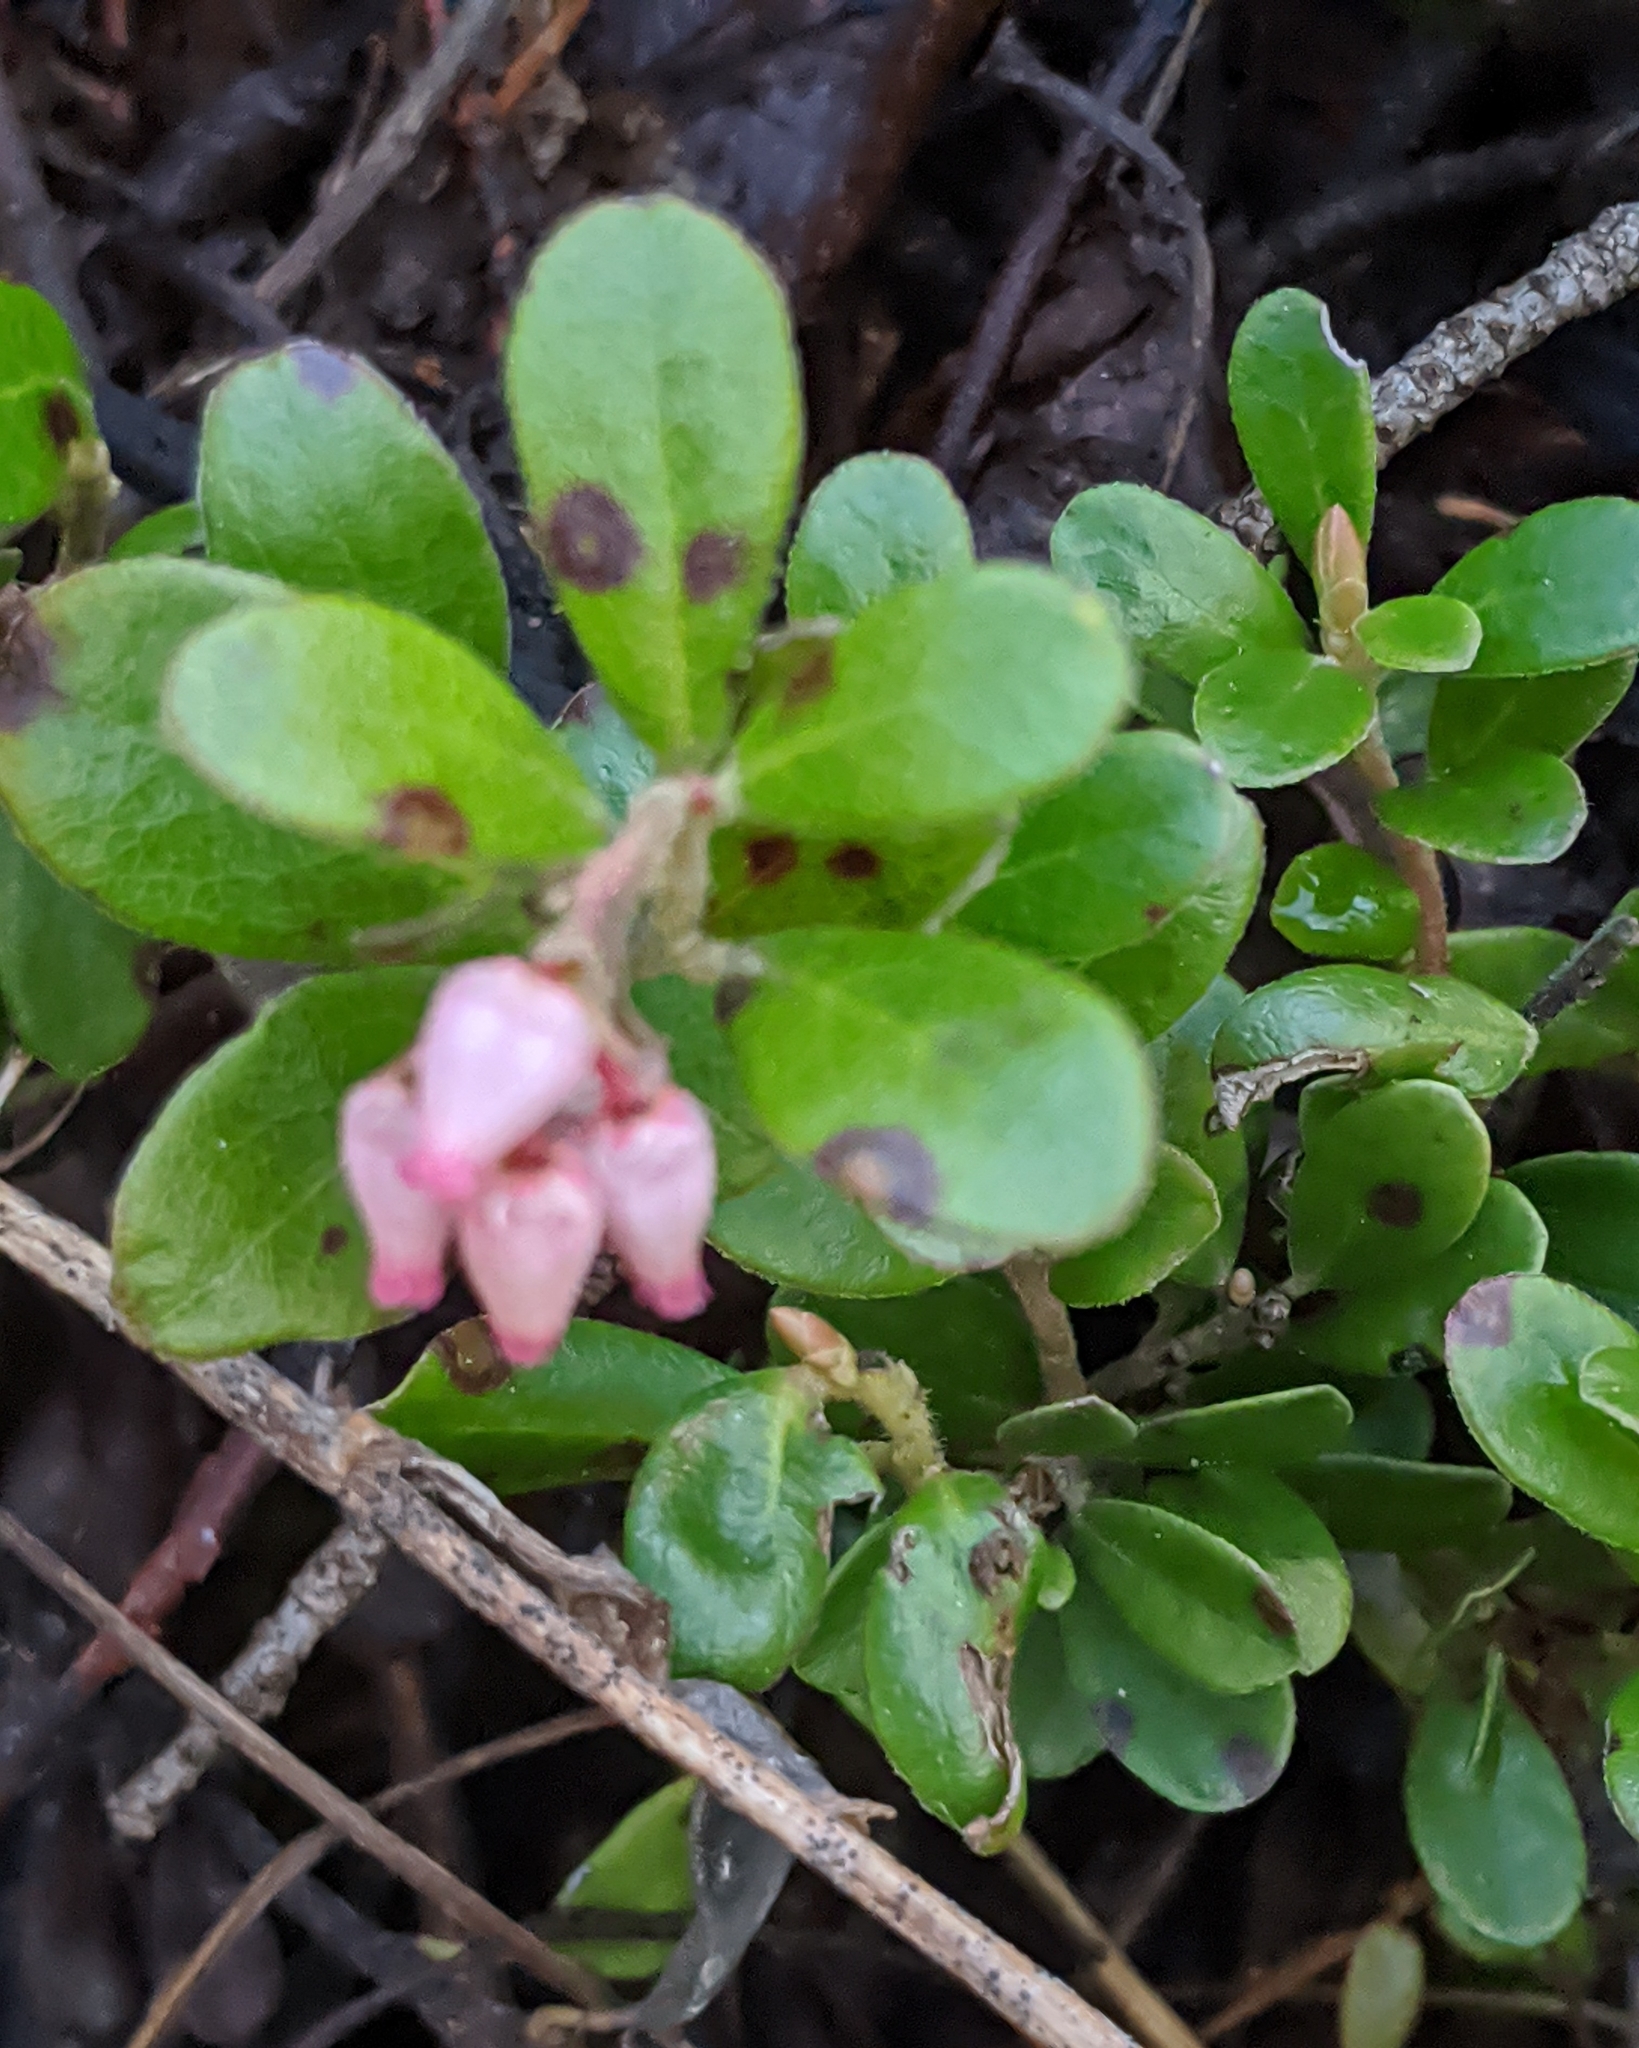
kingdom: Plantae
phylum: Tracheophyta
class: Magnoliopsida
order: Ericales
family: Ericaceae
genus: Arctostaphylos
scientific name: Arctostaphylos uva-ursi
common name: Bearberry
